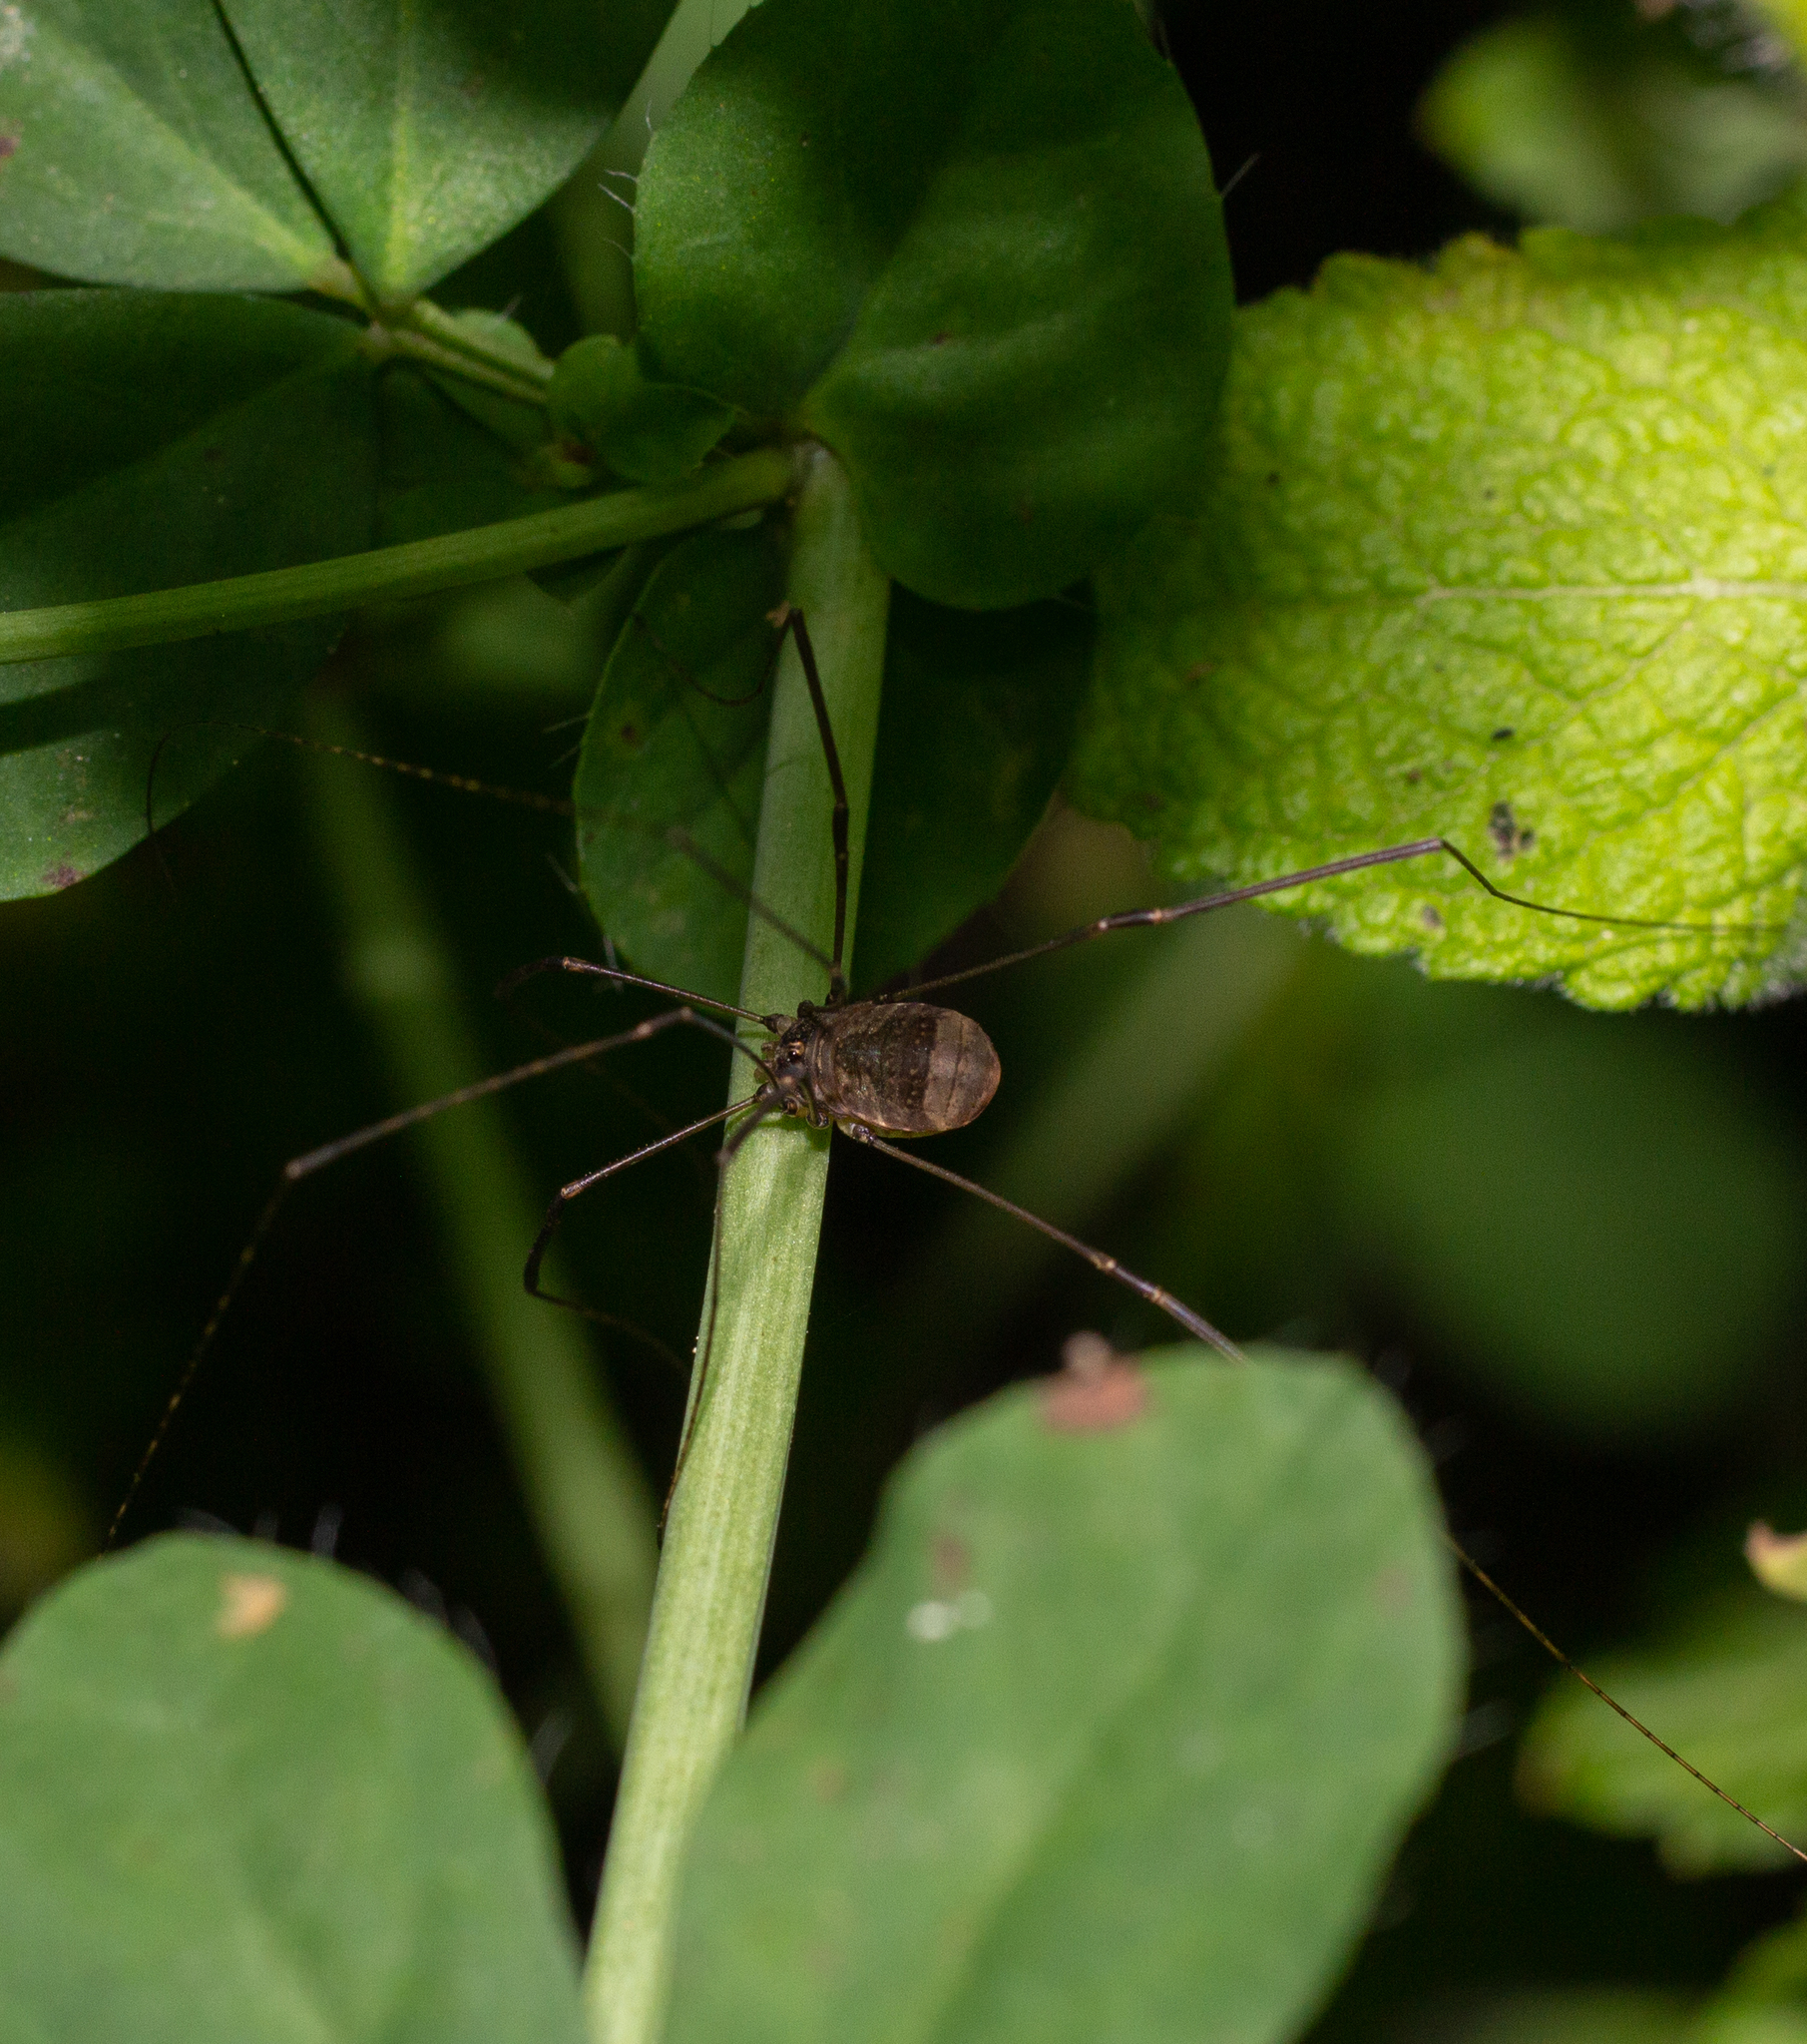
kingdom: Animalia
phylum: Arthropoda
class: Arachnida
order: Opiliones
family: Sclerosomatidae
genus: Leiobunum
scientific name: Leiobunum blackwalli
